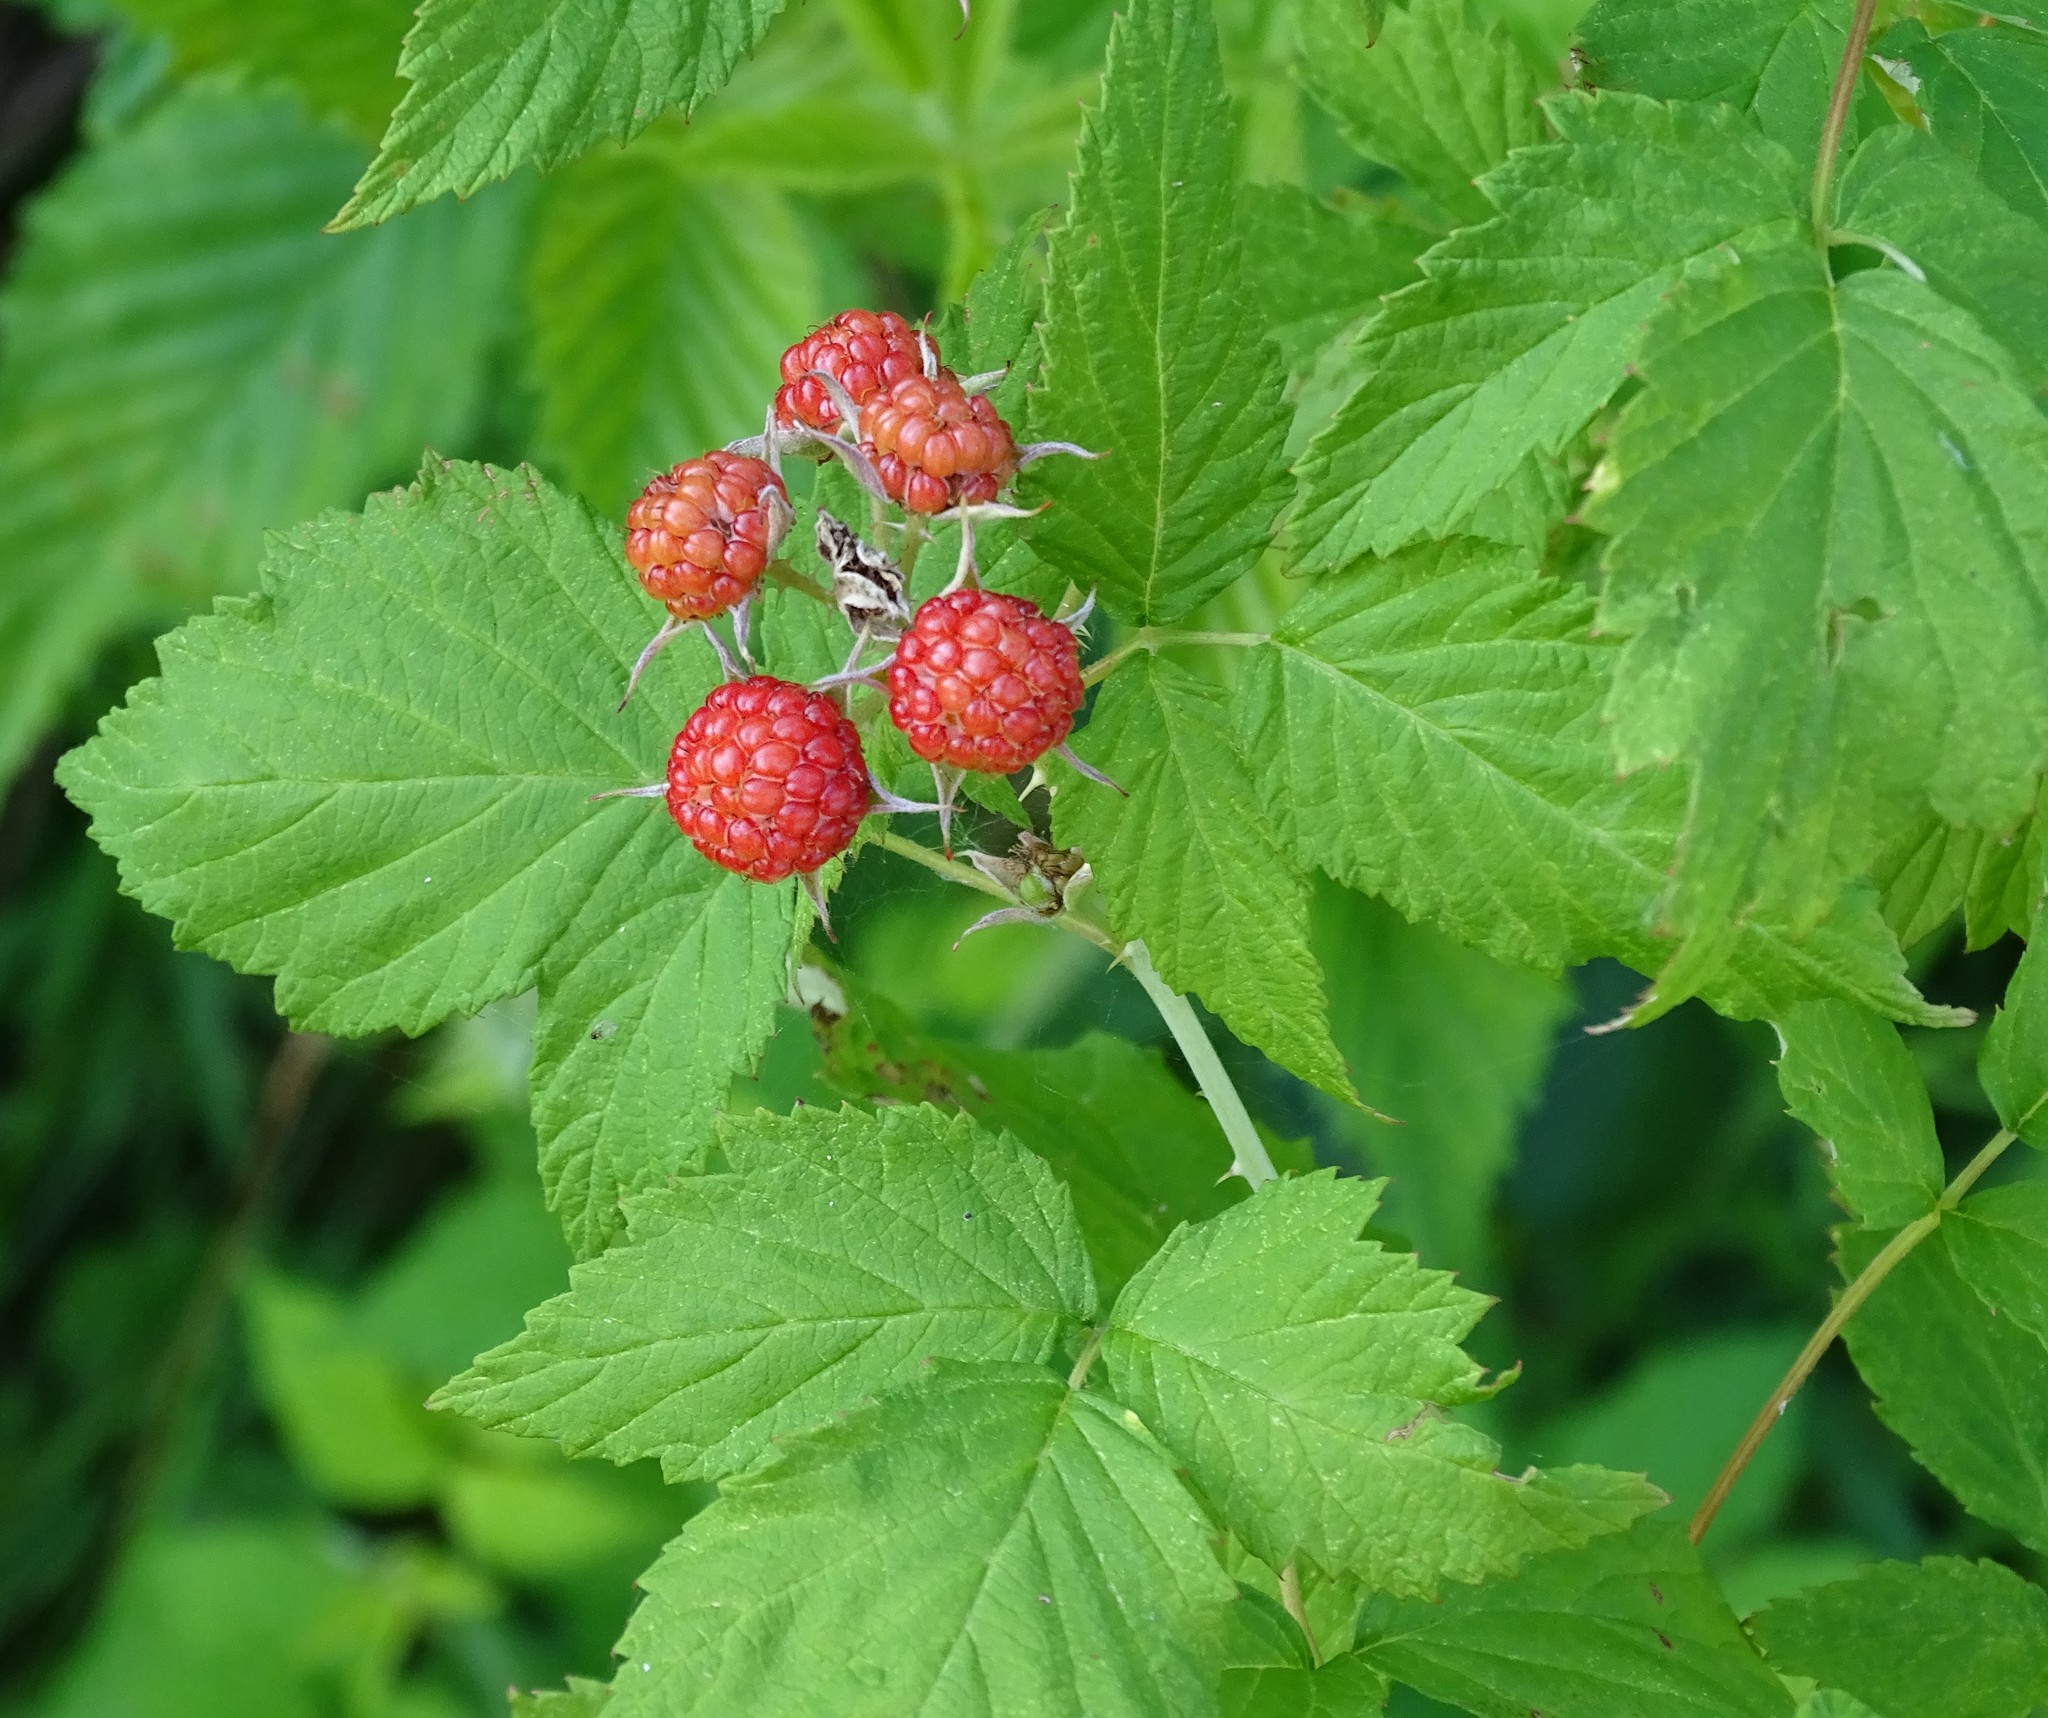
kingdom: Plantae
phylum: Tracheophyta
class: Magnoliopsida
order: Rosales
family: Rosaceae
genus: Rubus
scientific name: Rubus occidentalis
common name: Black raspberry
